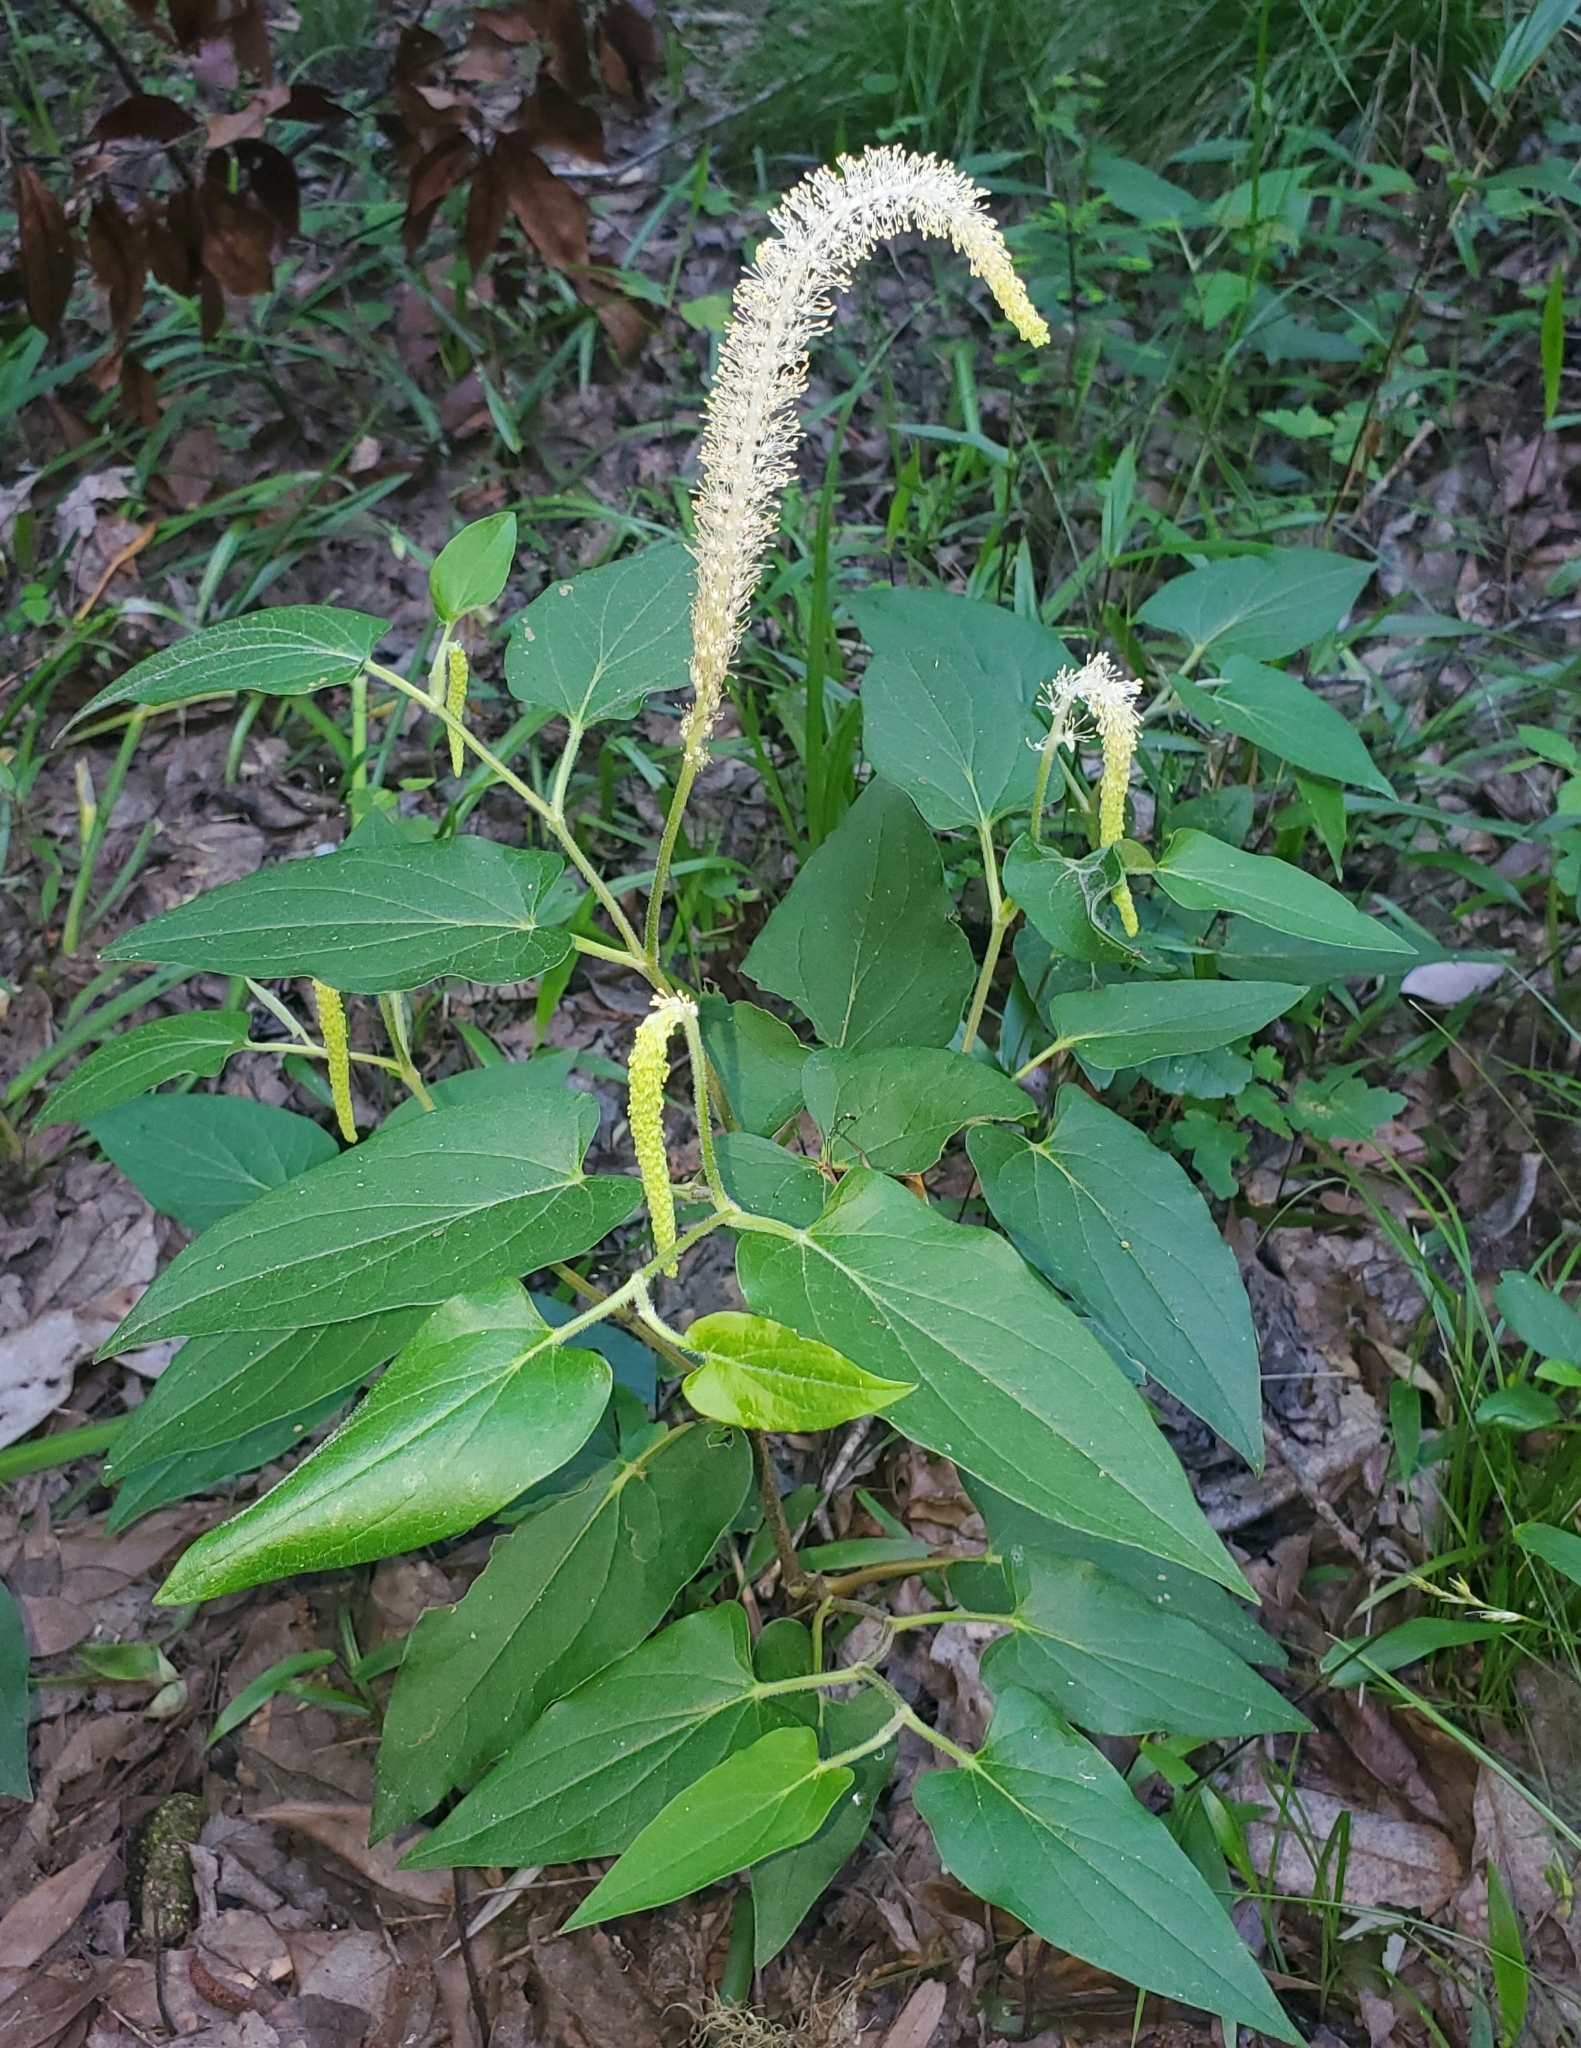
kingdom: Plantae
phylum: Tracheophyta
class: Magnoliopsida
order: Piperales
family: Saururaceae
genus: Saururus
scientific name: Saururus cernuus
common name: Lizard's-tail
